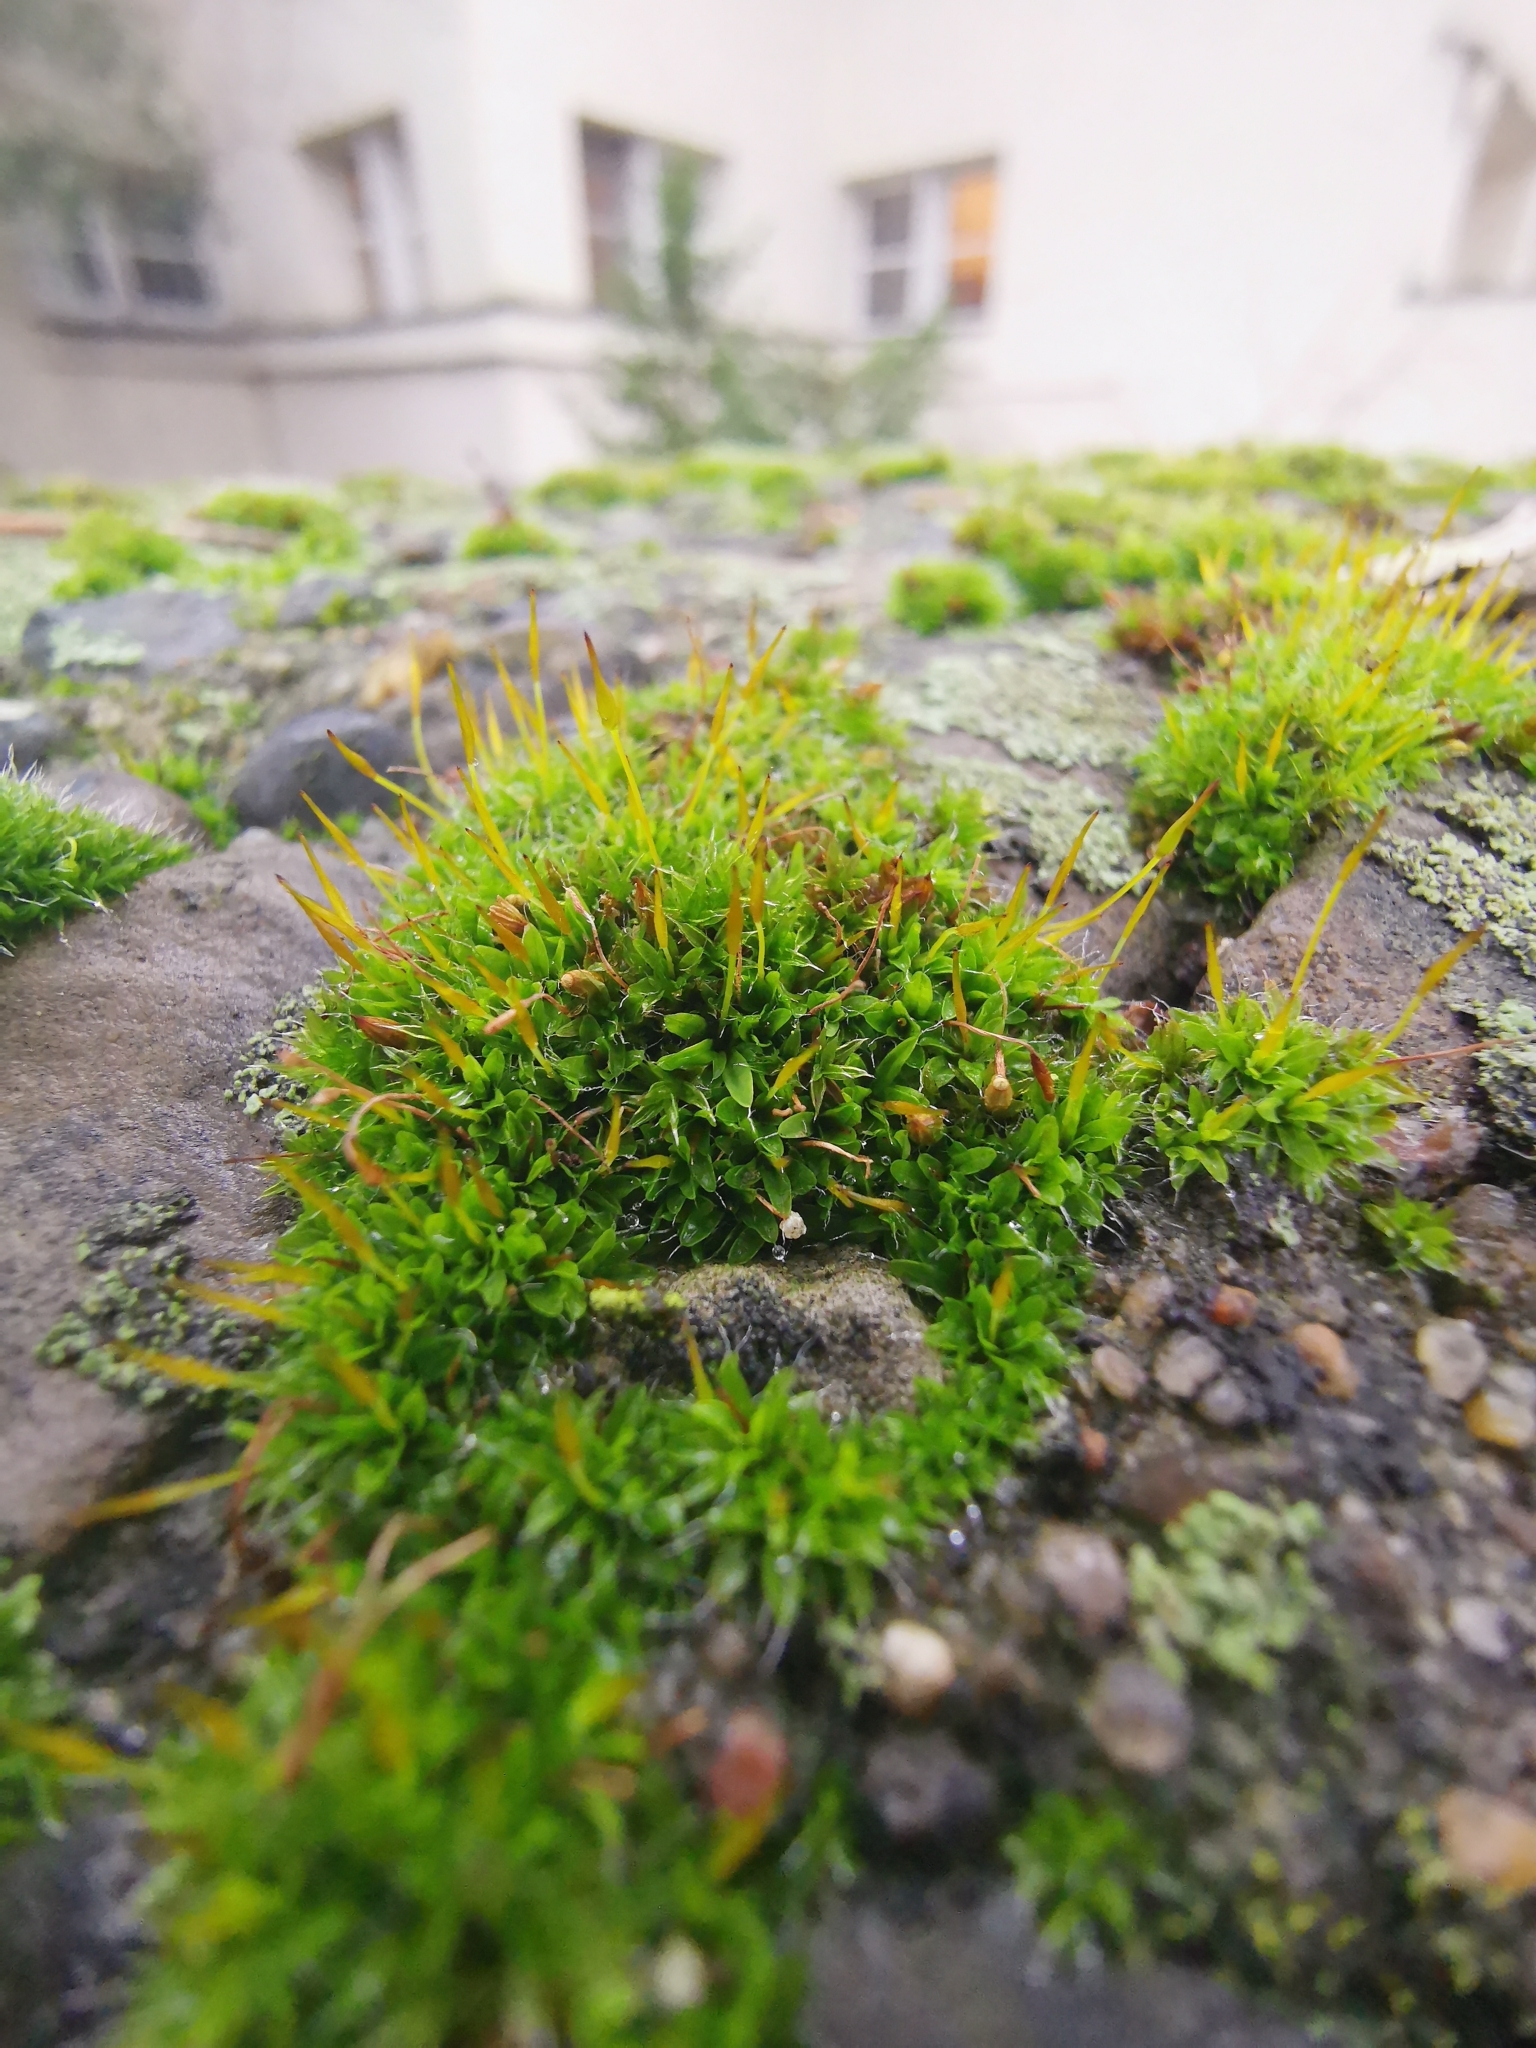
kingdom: Plantae
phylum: Bryophyta
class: Bryopsida
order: Pottiales
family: Pottiaceae
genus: Tortula
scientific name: Tortula muralis
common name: Wall screw-moss
